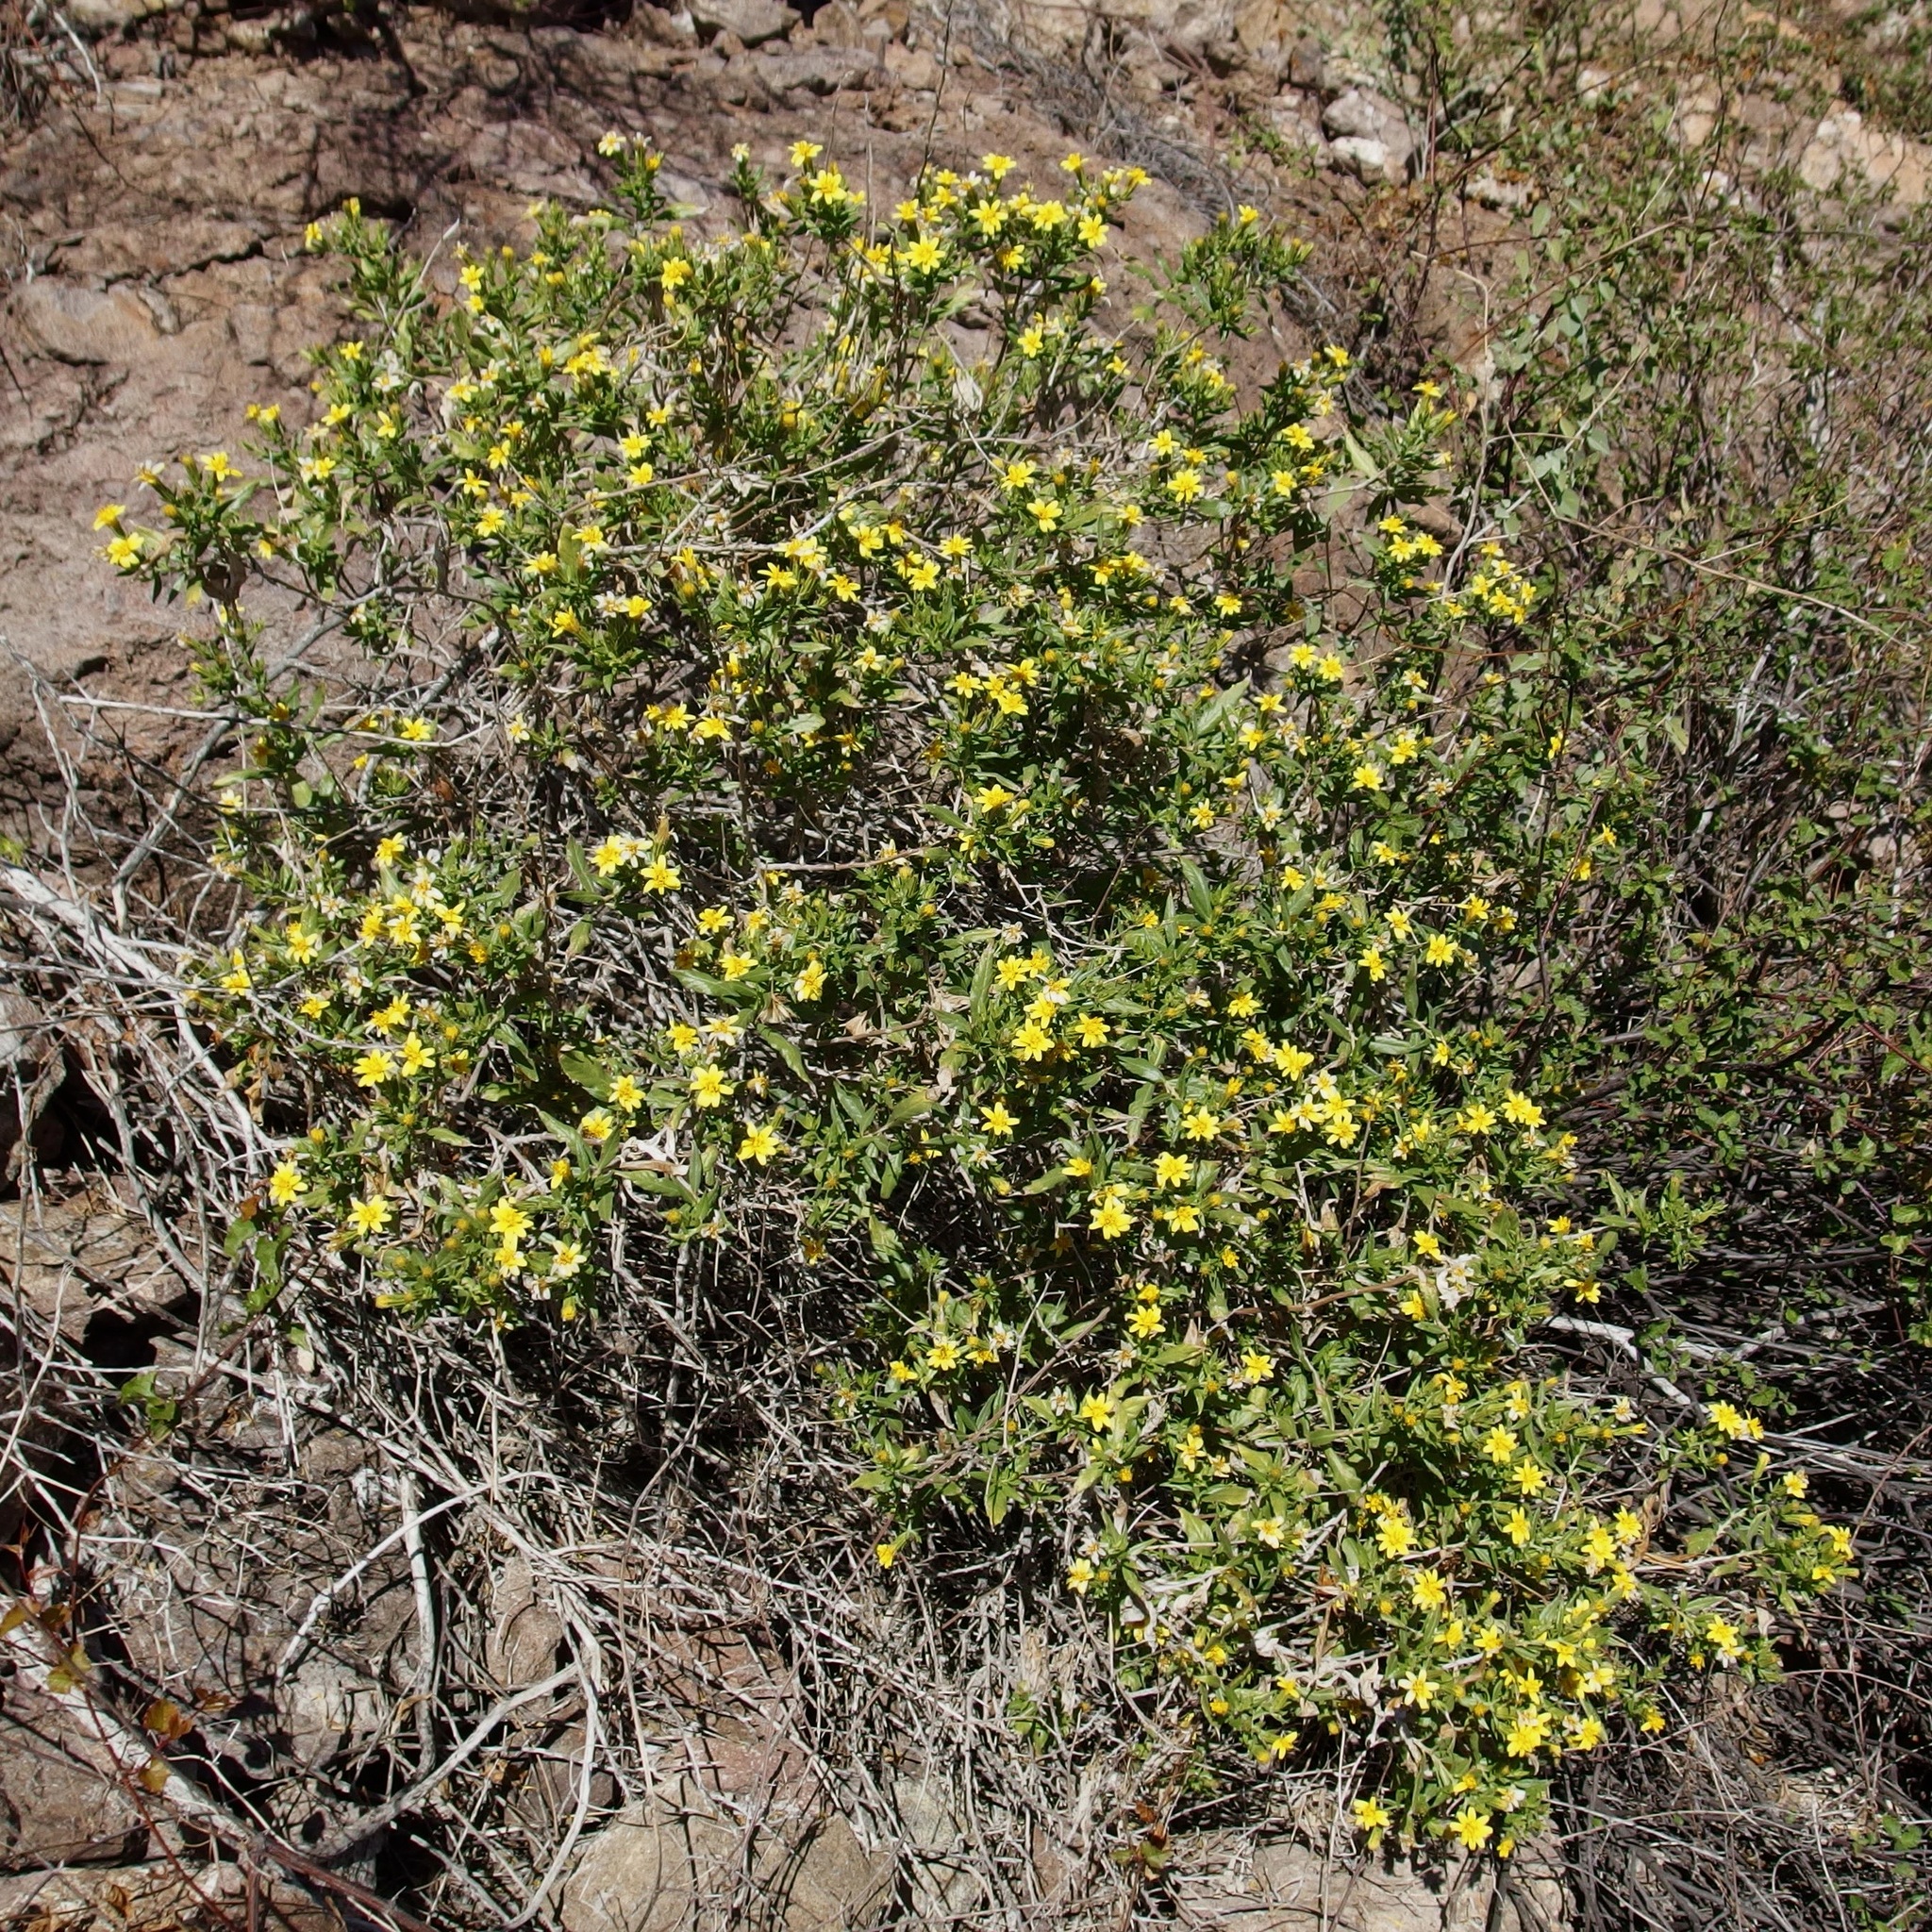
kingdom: Plantae
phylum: Tracheophyta
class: Magnoliopsida
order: Asterales
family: Asteraceae
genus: Trixis
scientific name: Trixis californica
